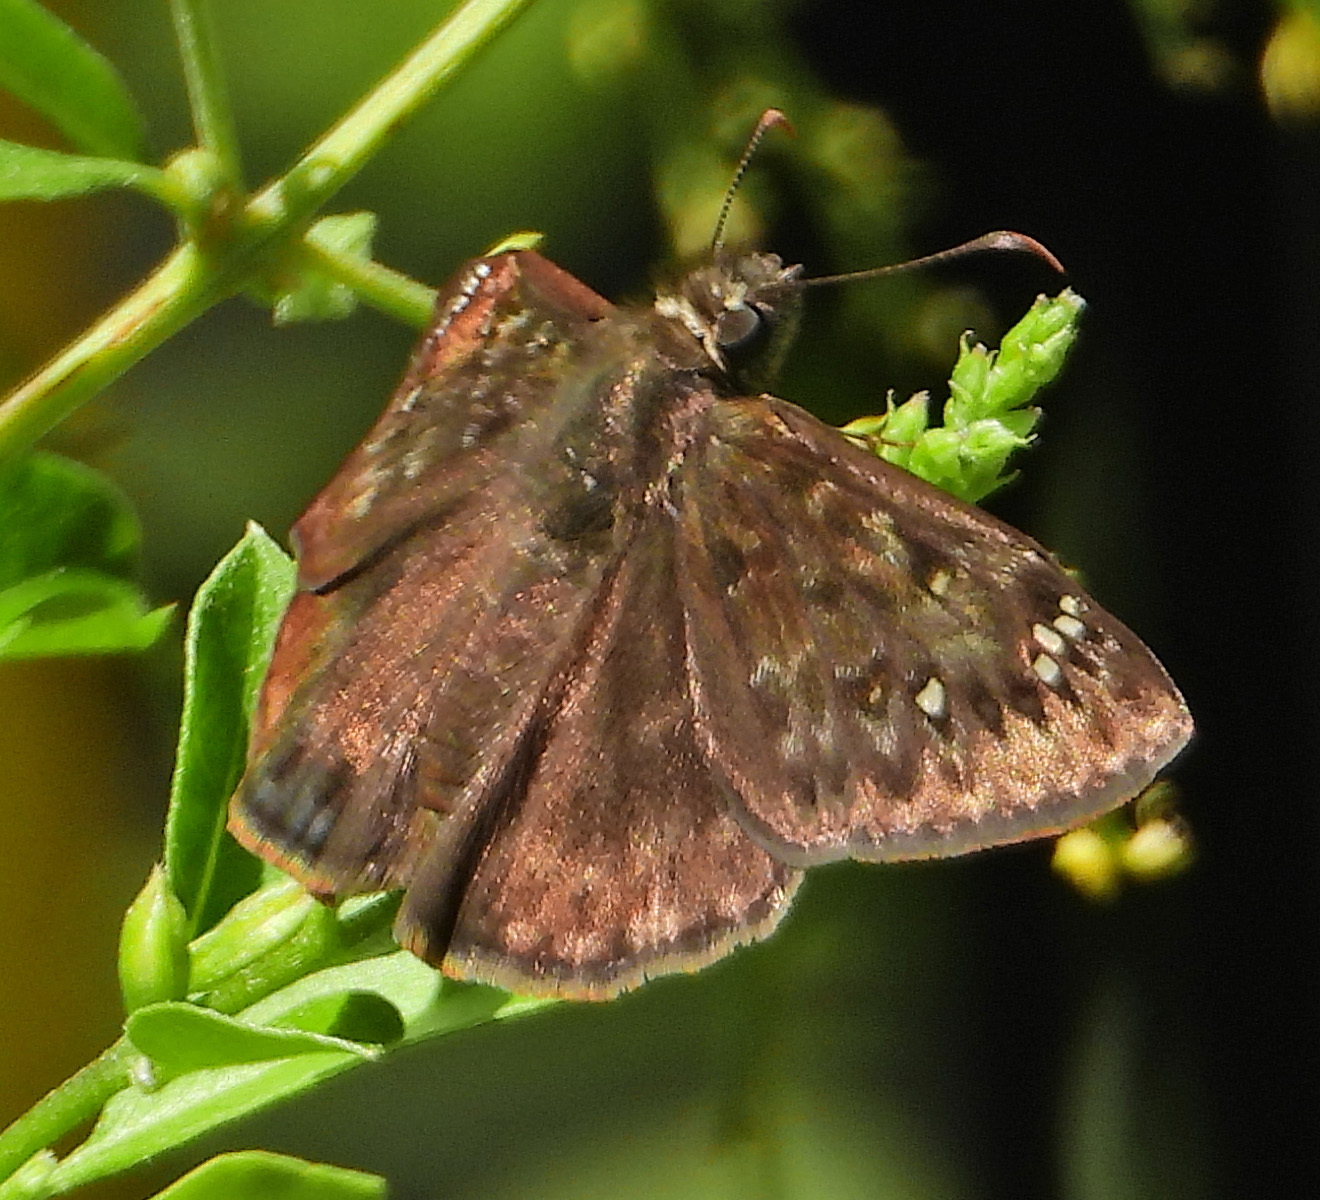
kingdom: Animalia
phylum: Arthropoda
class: Insecta
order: Lepidoptera
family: Hesperiidae
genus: Erynnis
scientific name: Erynnis horatius
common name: Horace's duskywing
